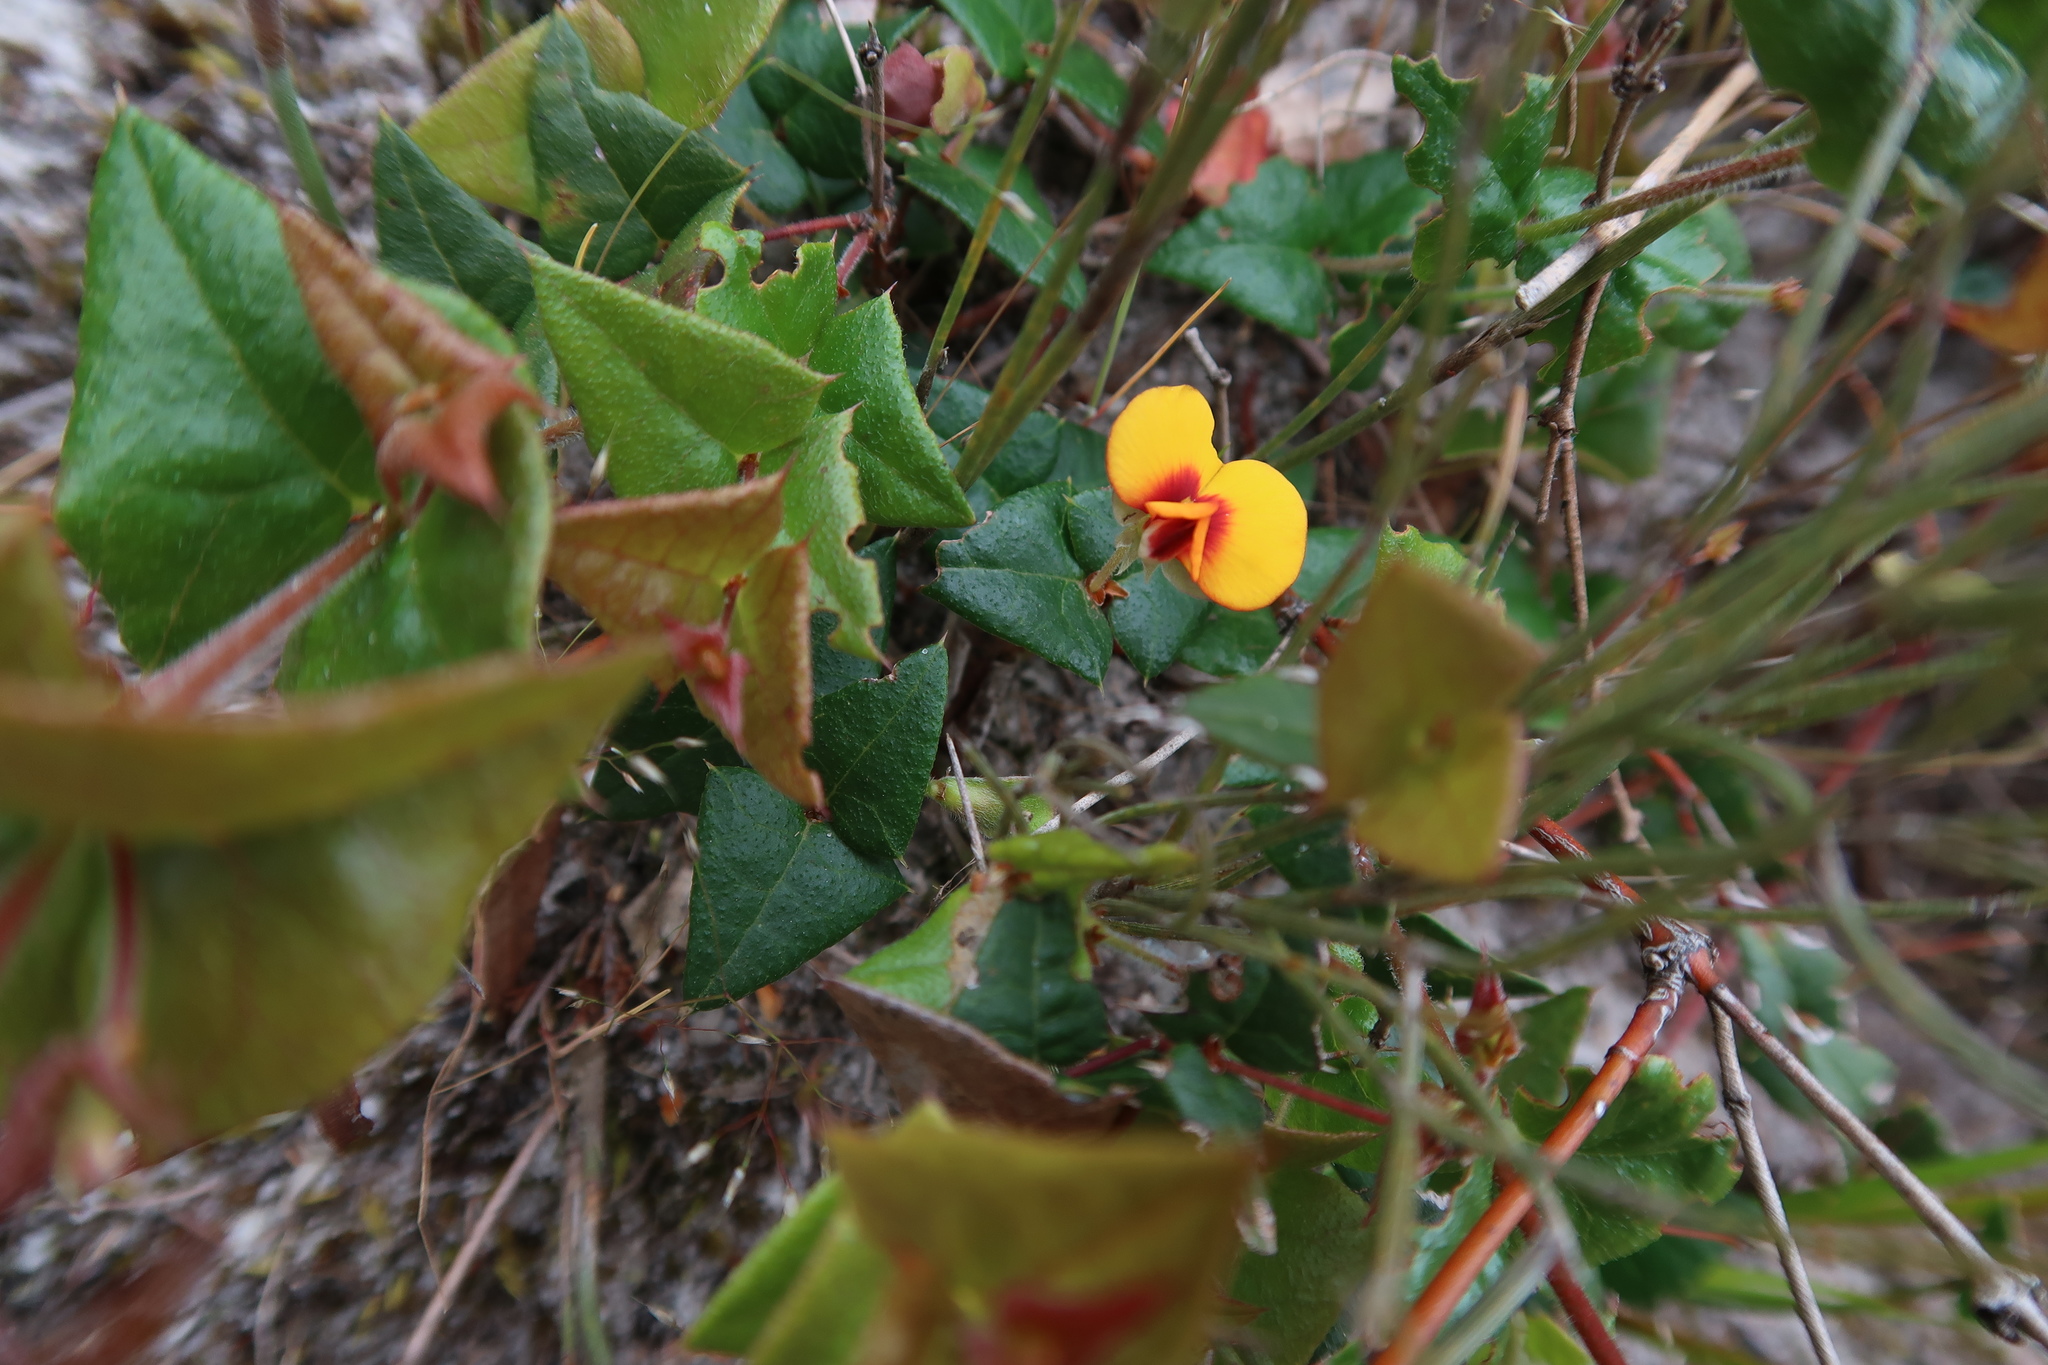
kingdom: Plantae
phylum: Tracheophyta
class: Magnoliopsida
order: Fabales
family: Fabaceae
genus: Platylobium
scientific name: Platylobium triangulare
